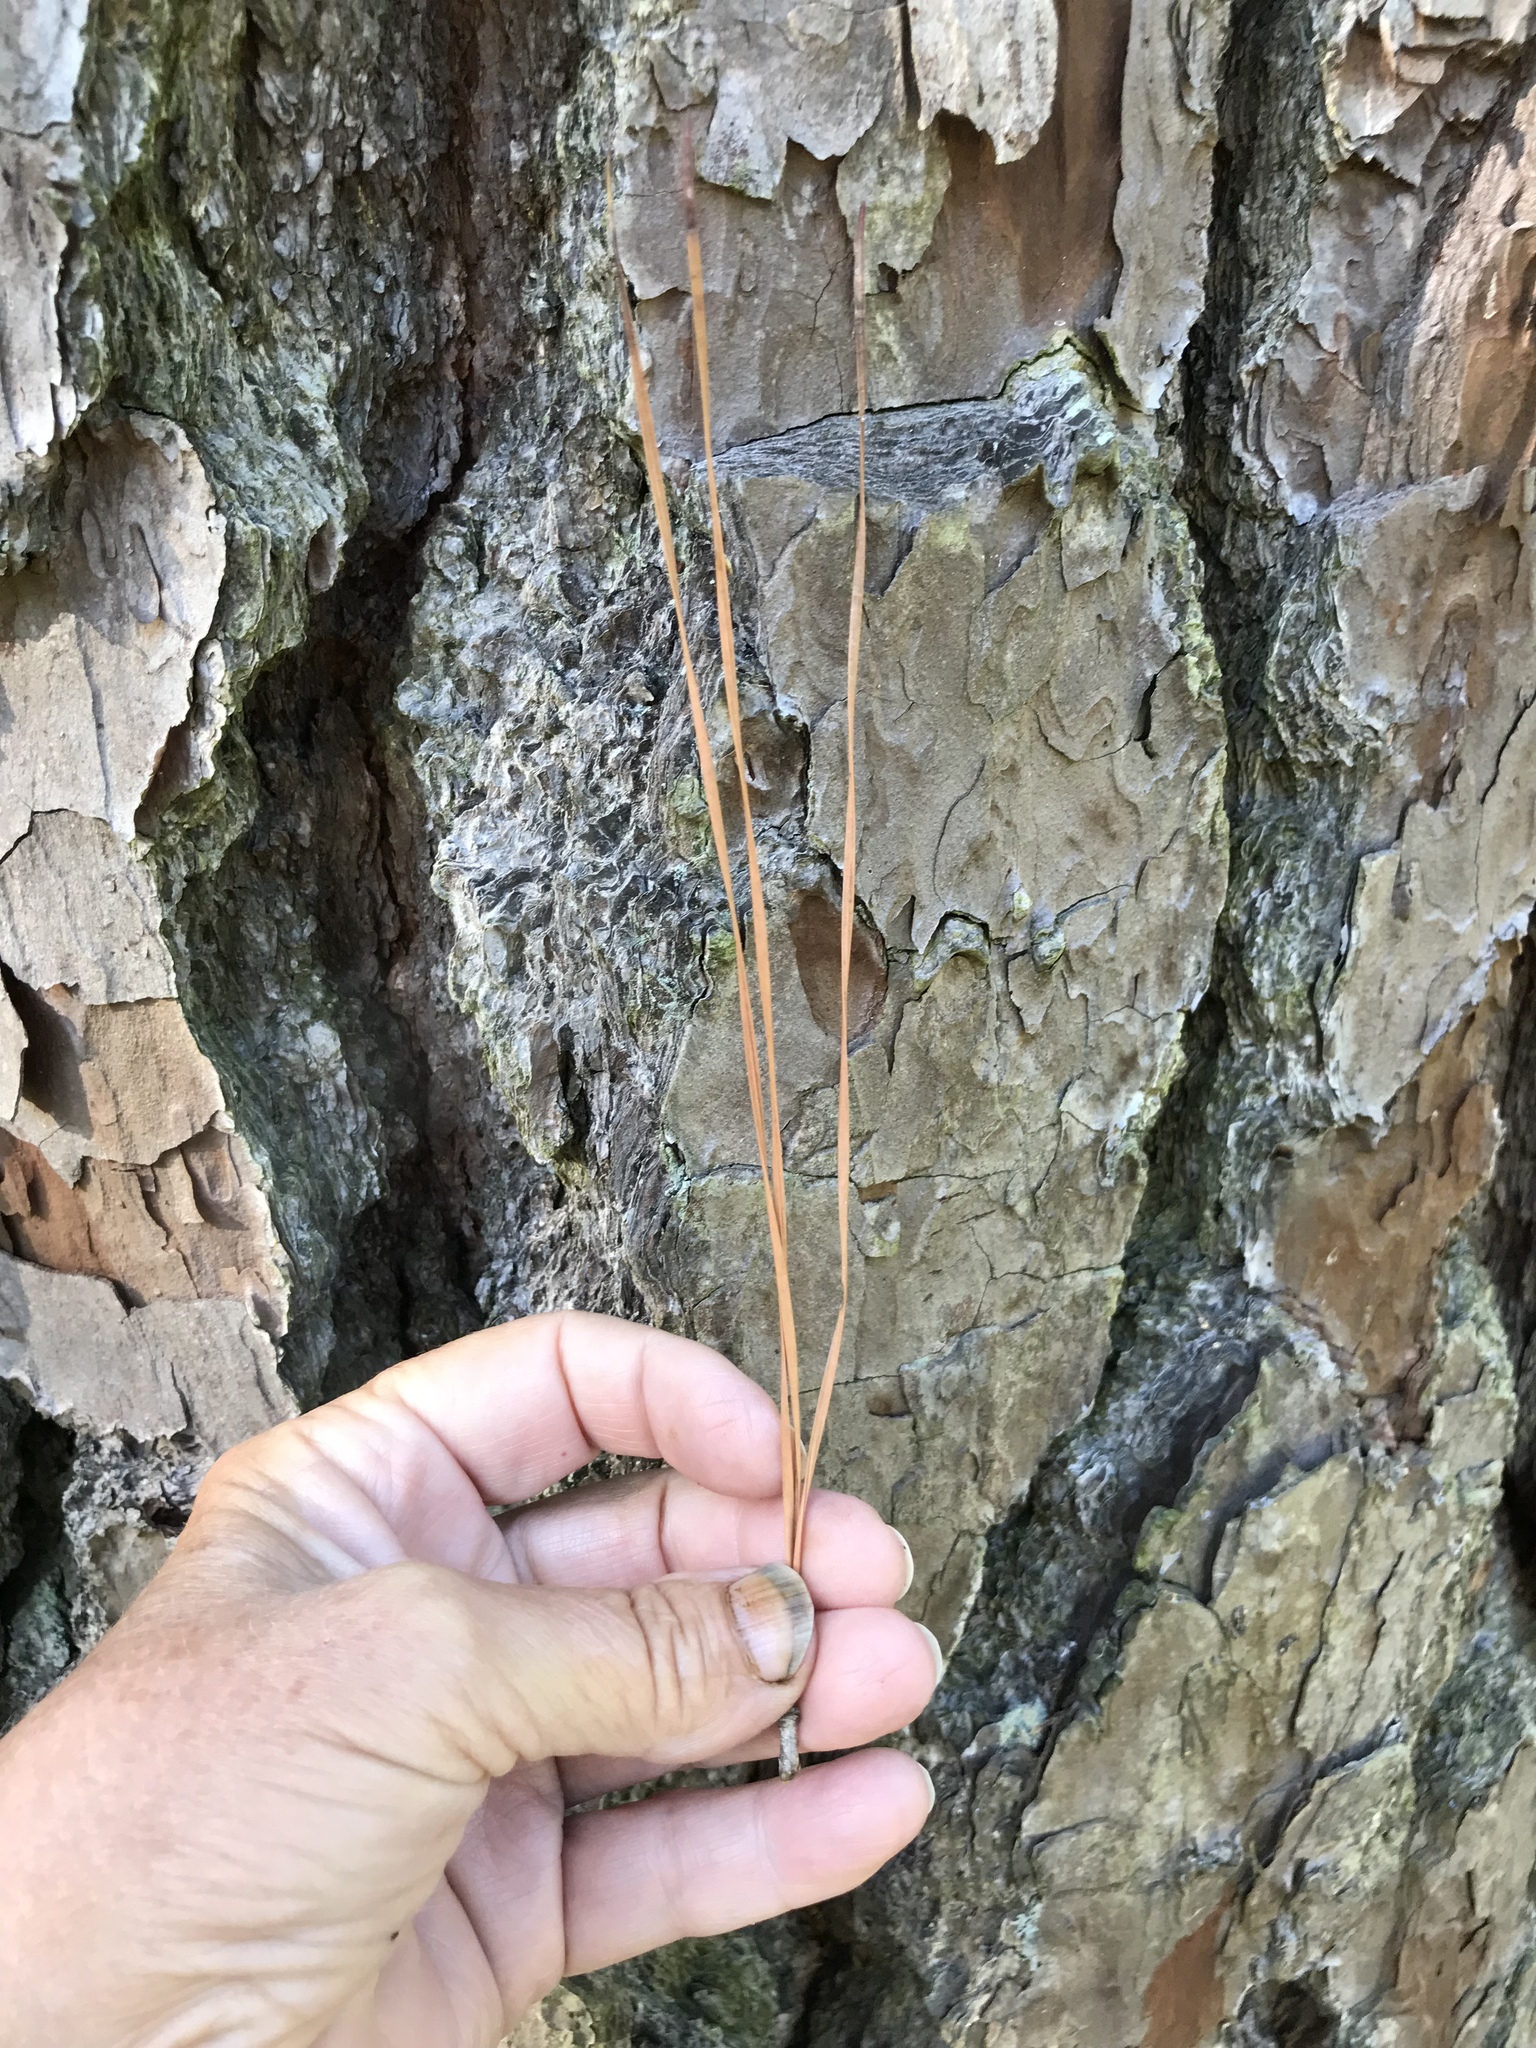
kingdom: Plantae
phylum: Tracheophyta
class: Pinopsida
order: Pinales
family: Pinaceae
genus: Pinus
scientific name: Pinus taeda
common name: Loblolly pine
